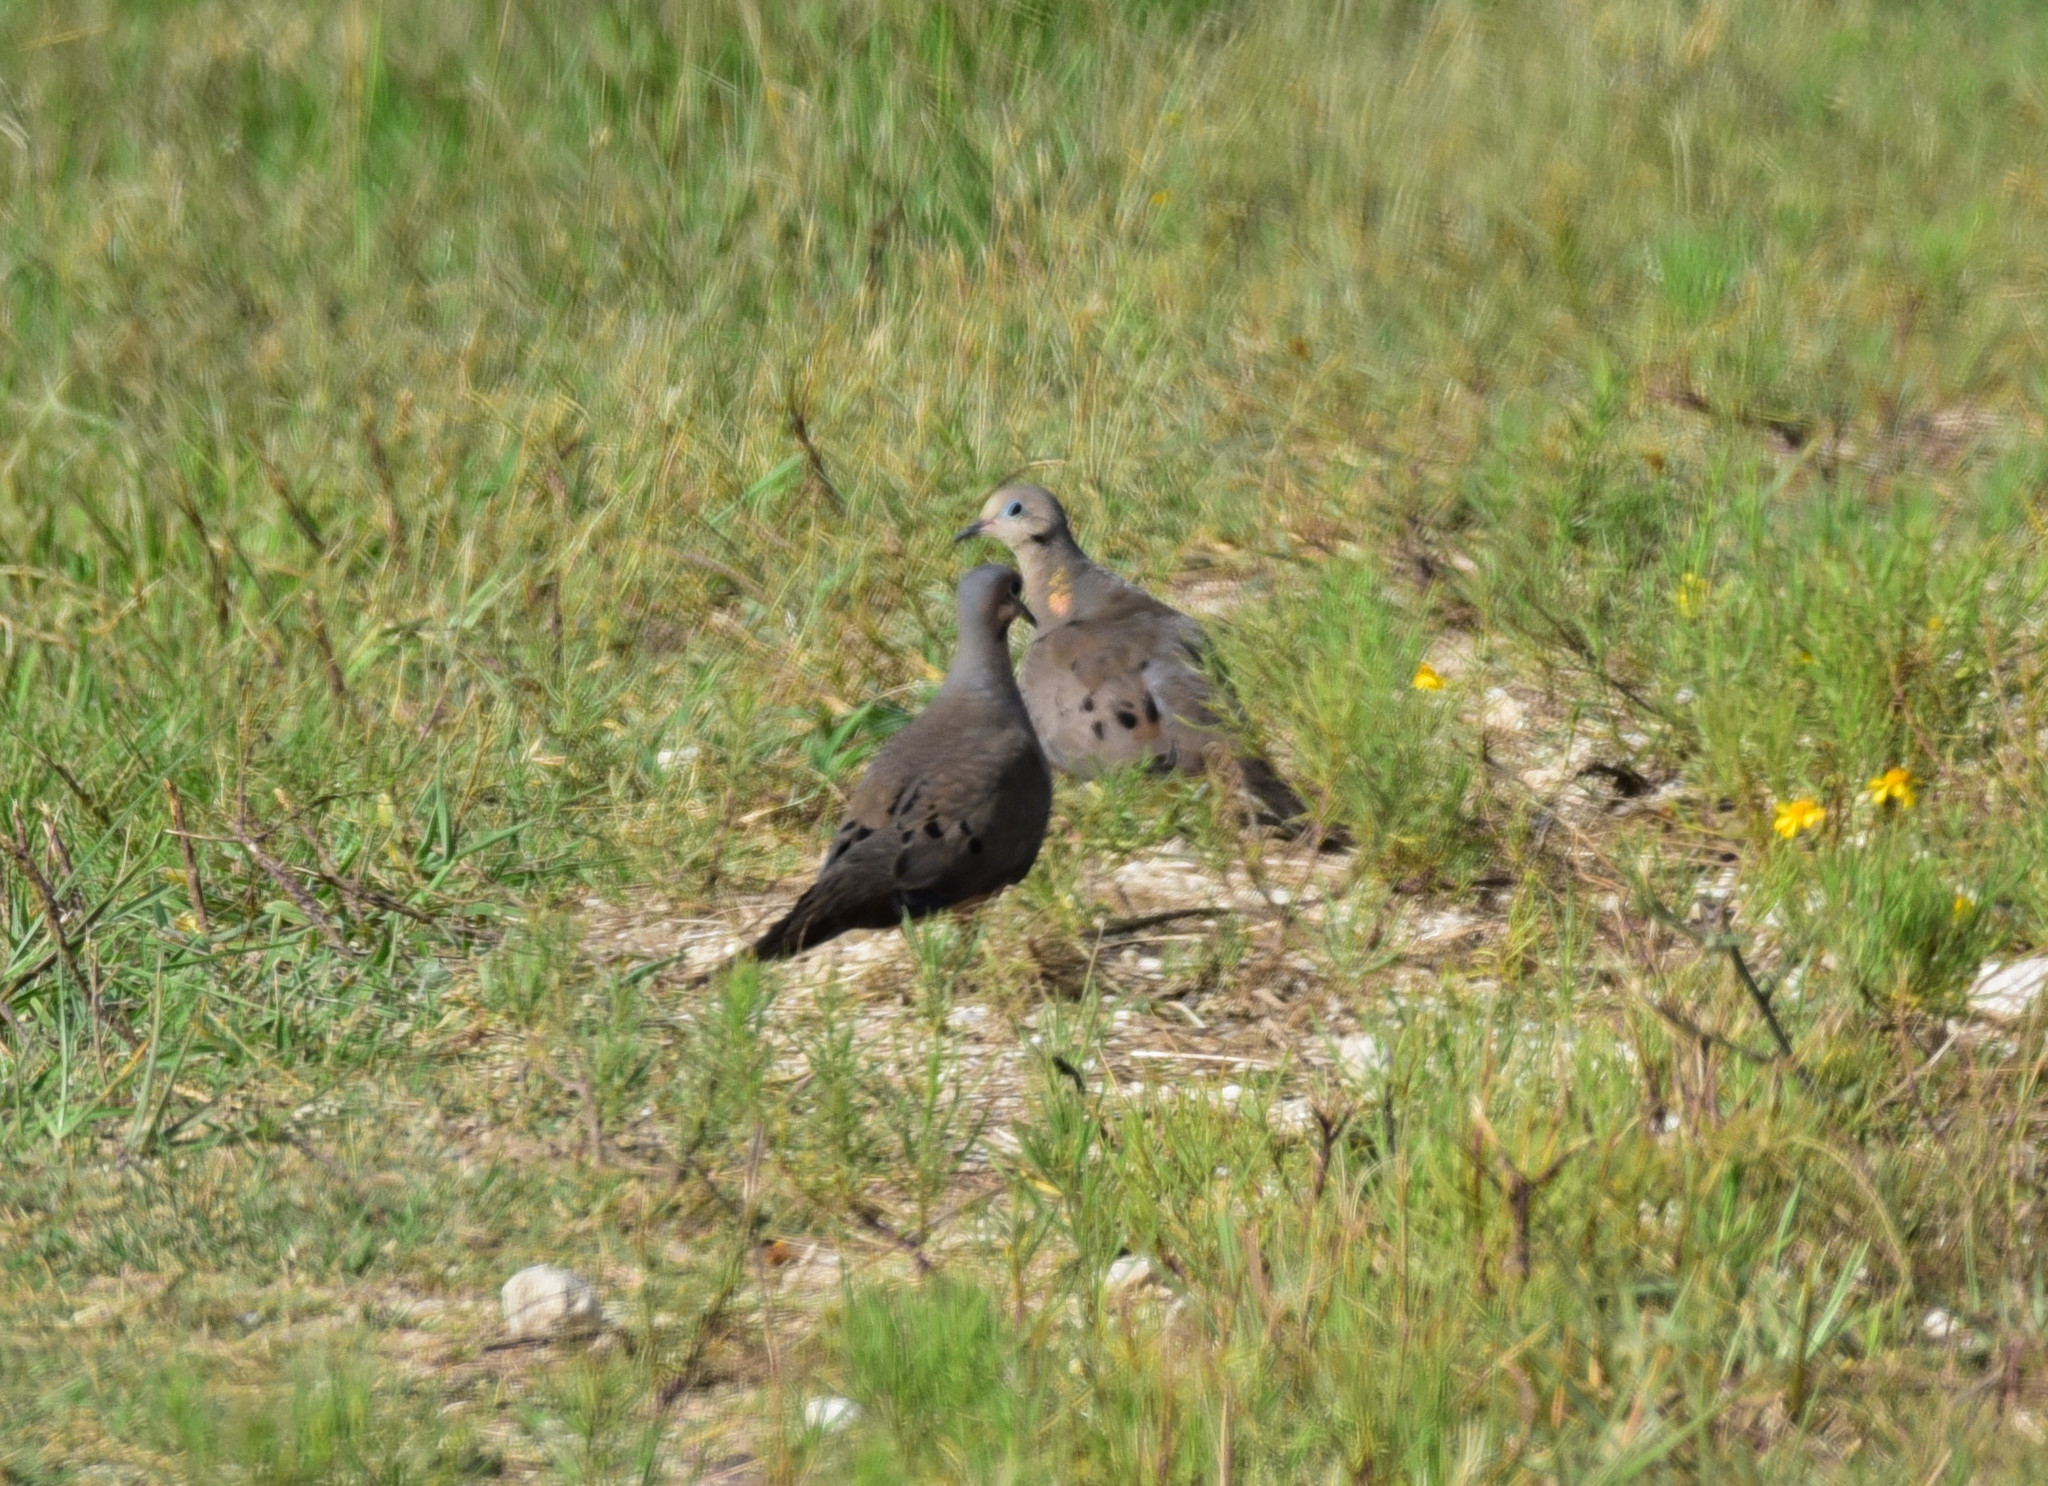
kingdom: Animalia
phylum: Chordata
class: Aves
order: Columbiformes
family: Columbidae
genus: Zenaida
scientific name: Zenaida macroura
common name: Mourning dove
